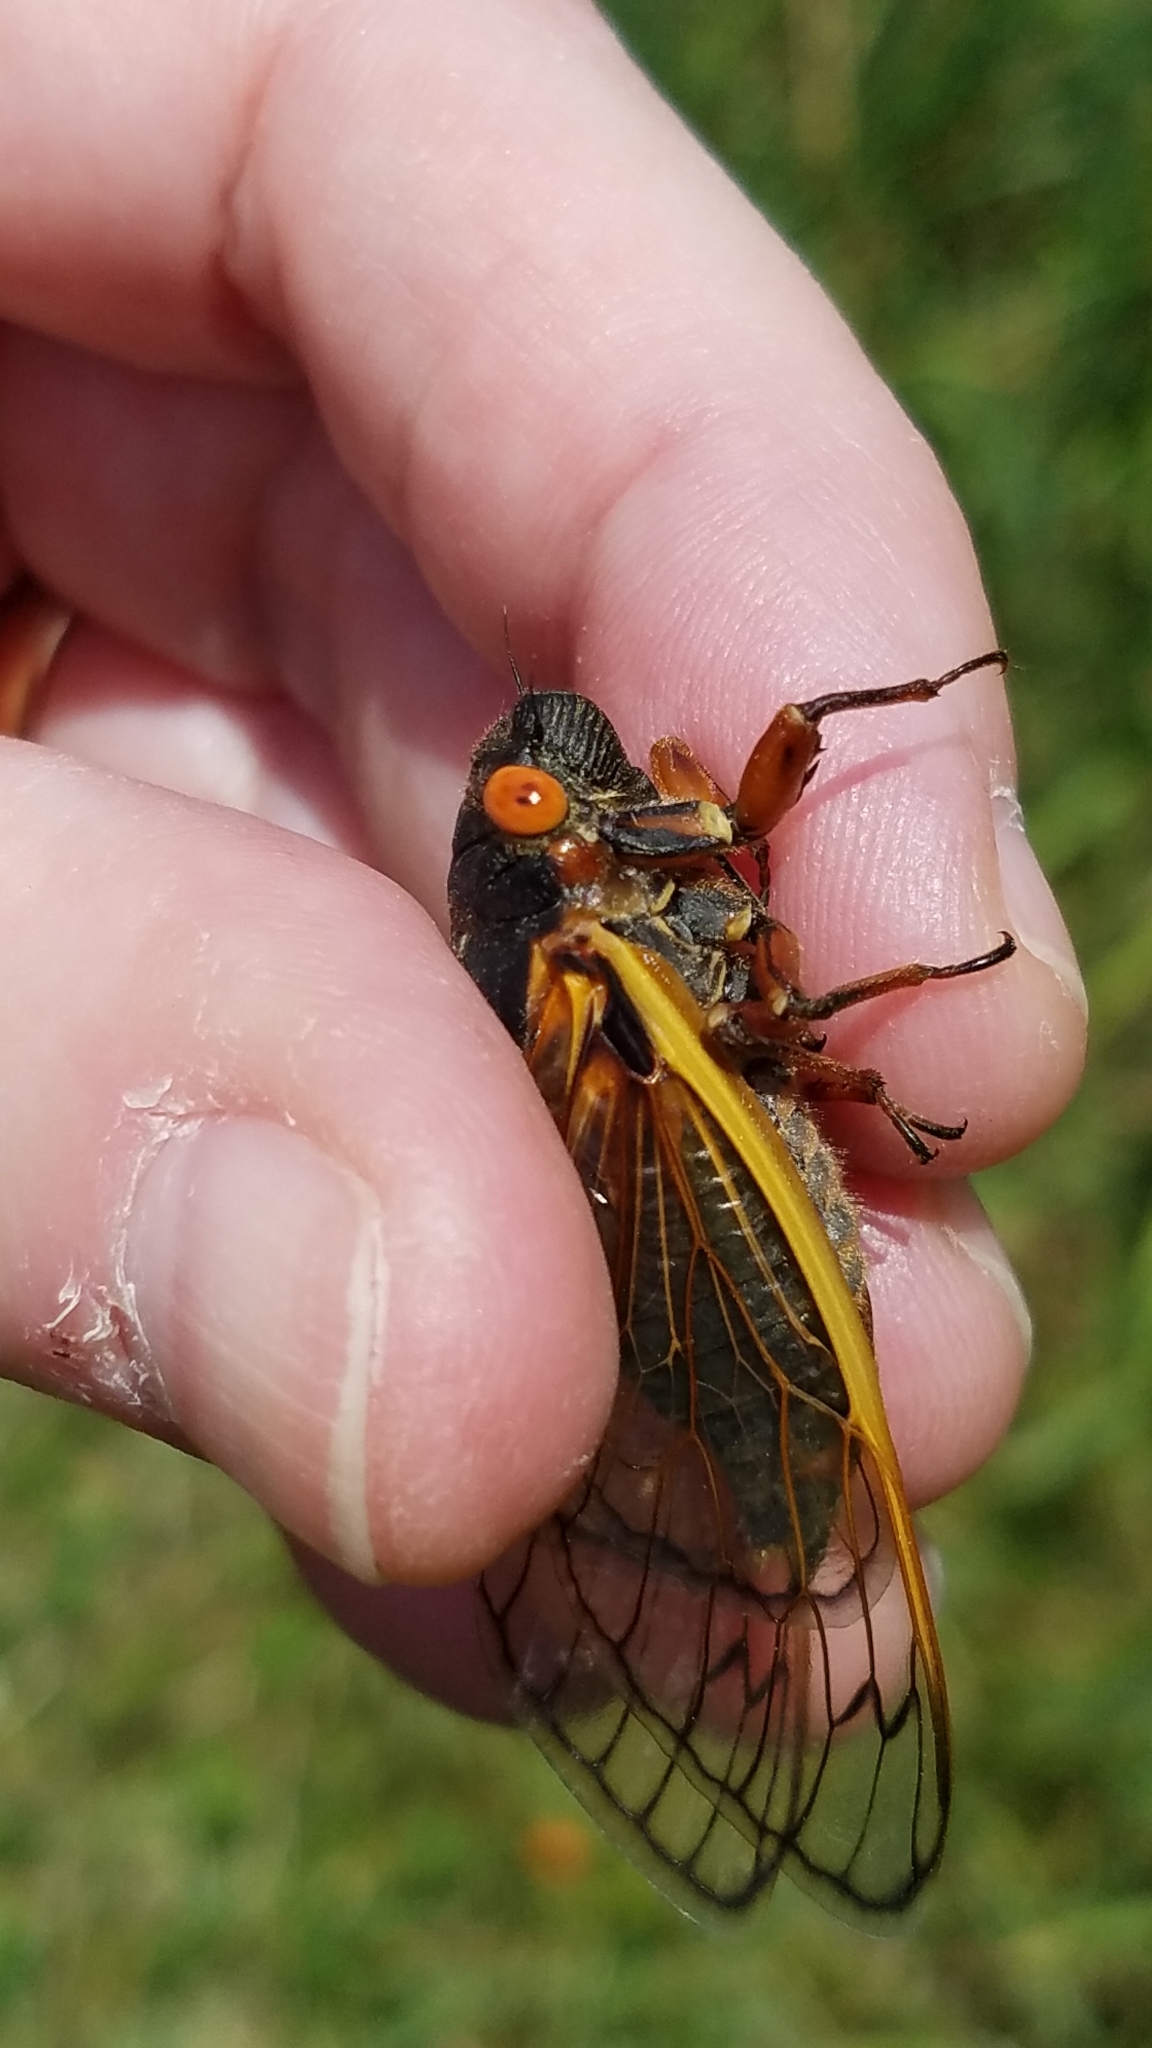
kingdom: Animalia
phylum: Arthropoda
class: Insecta
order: Hemiptera
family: Cicadidae
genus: Magicicada
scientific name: Magicicada septendecim
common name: Periodical cicada
